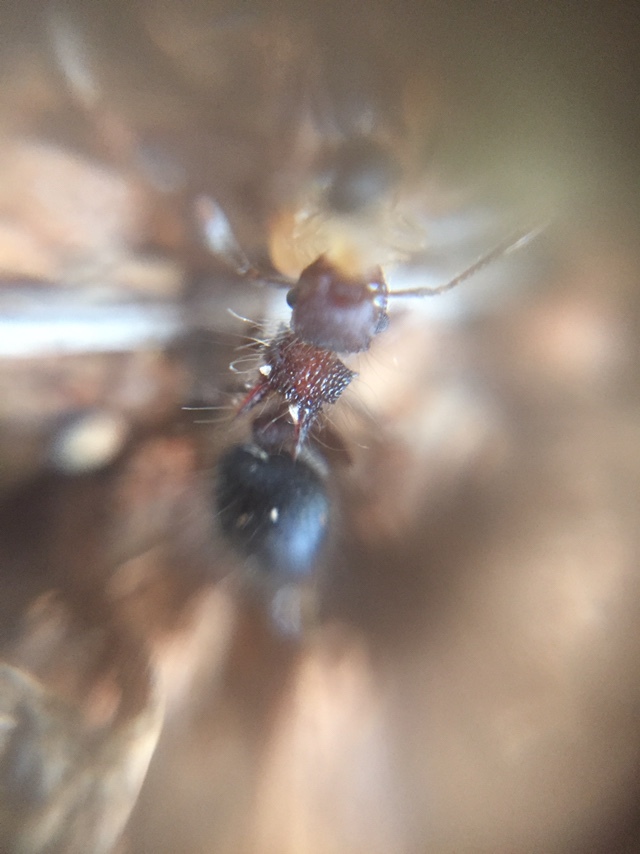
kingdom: Animalia
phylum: Arthropoda
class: Insecta
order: Hymenoptera
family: Formicidae
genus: Meranoplus
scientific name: Meranoplus bicolor
